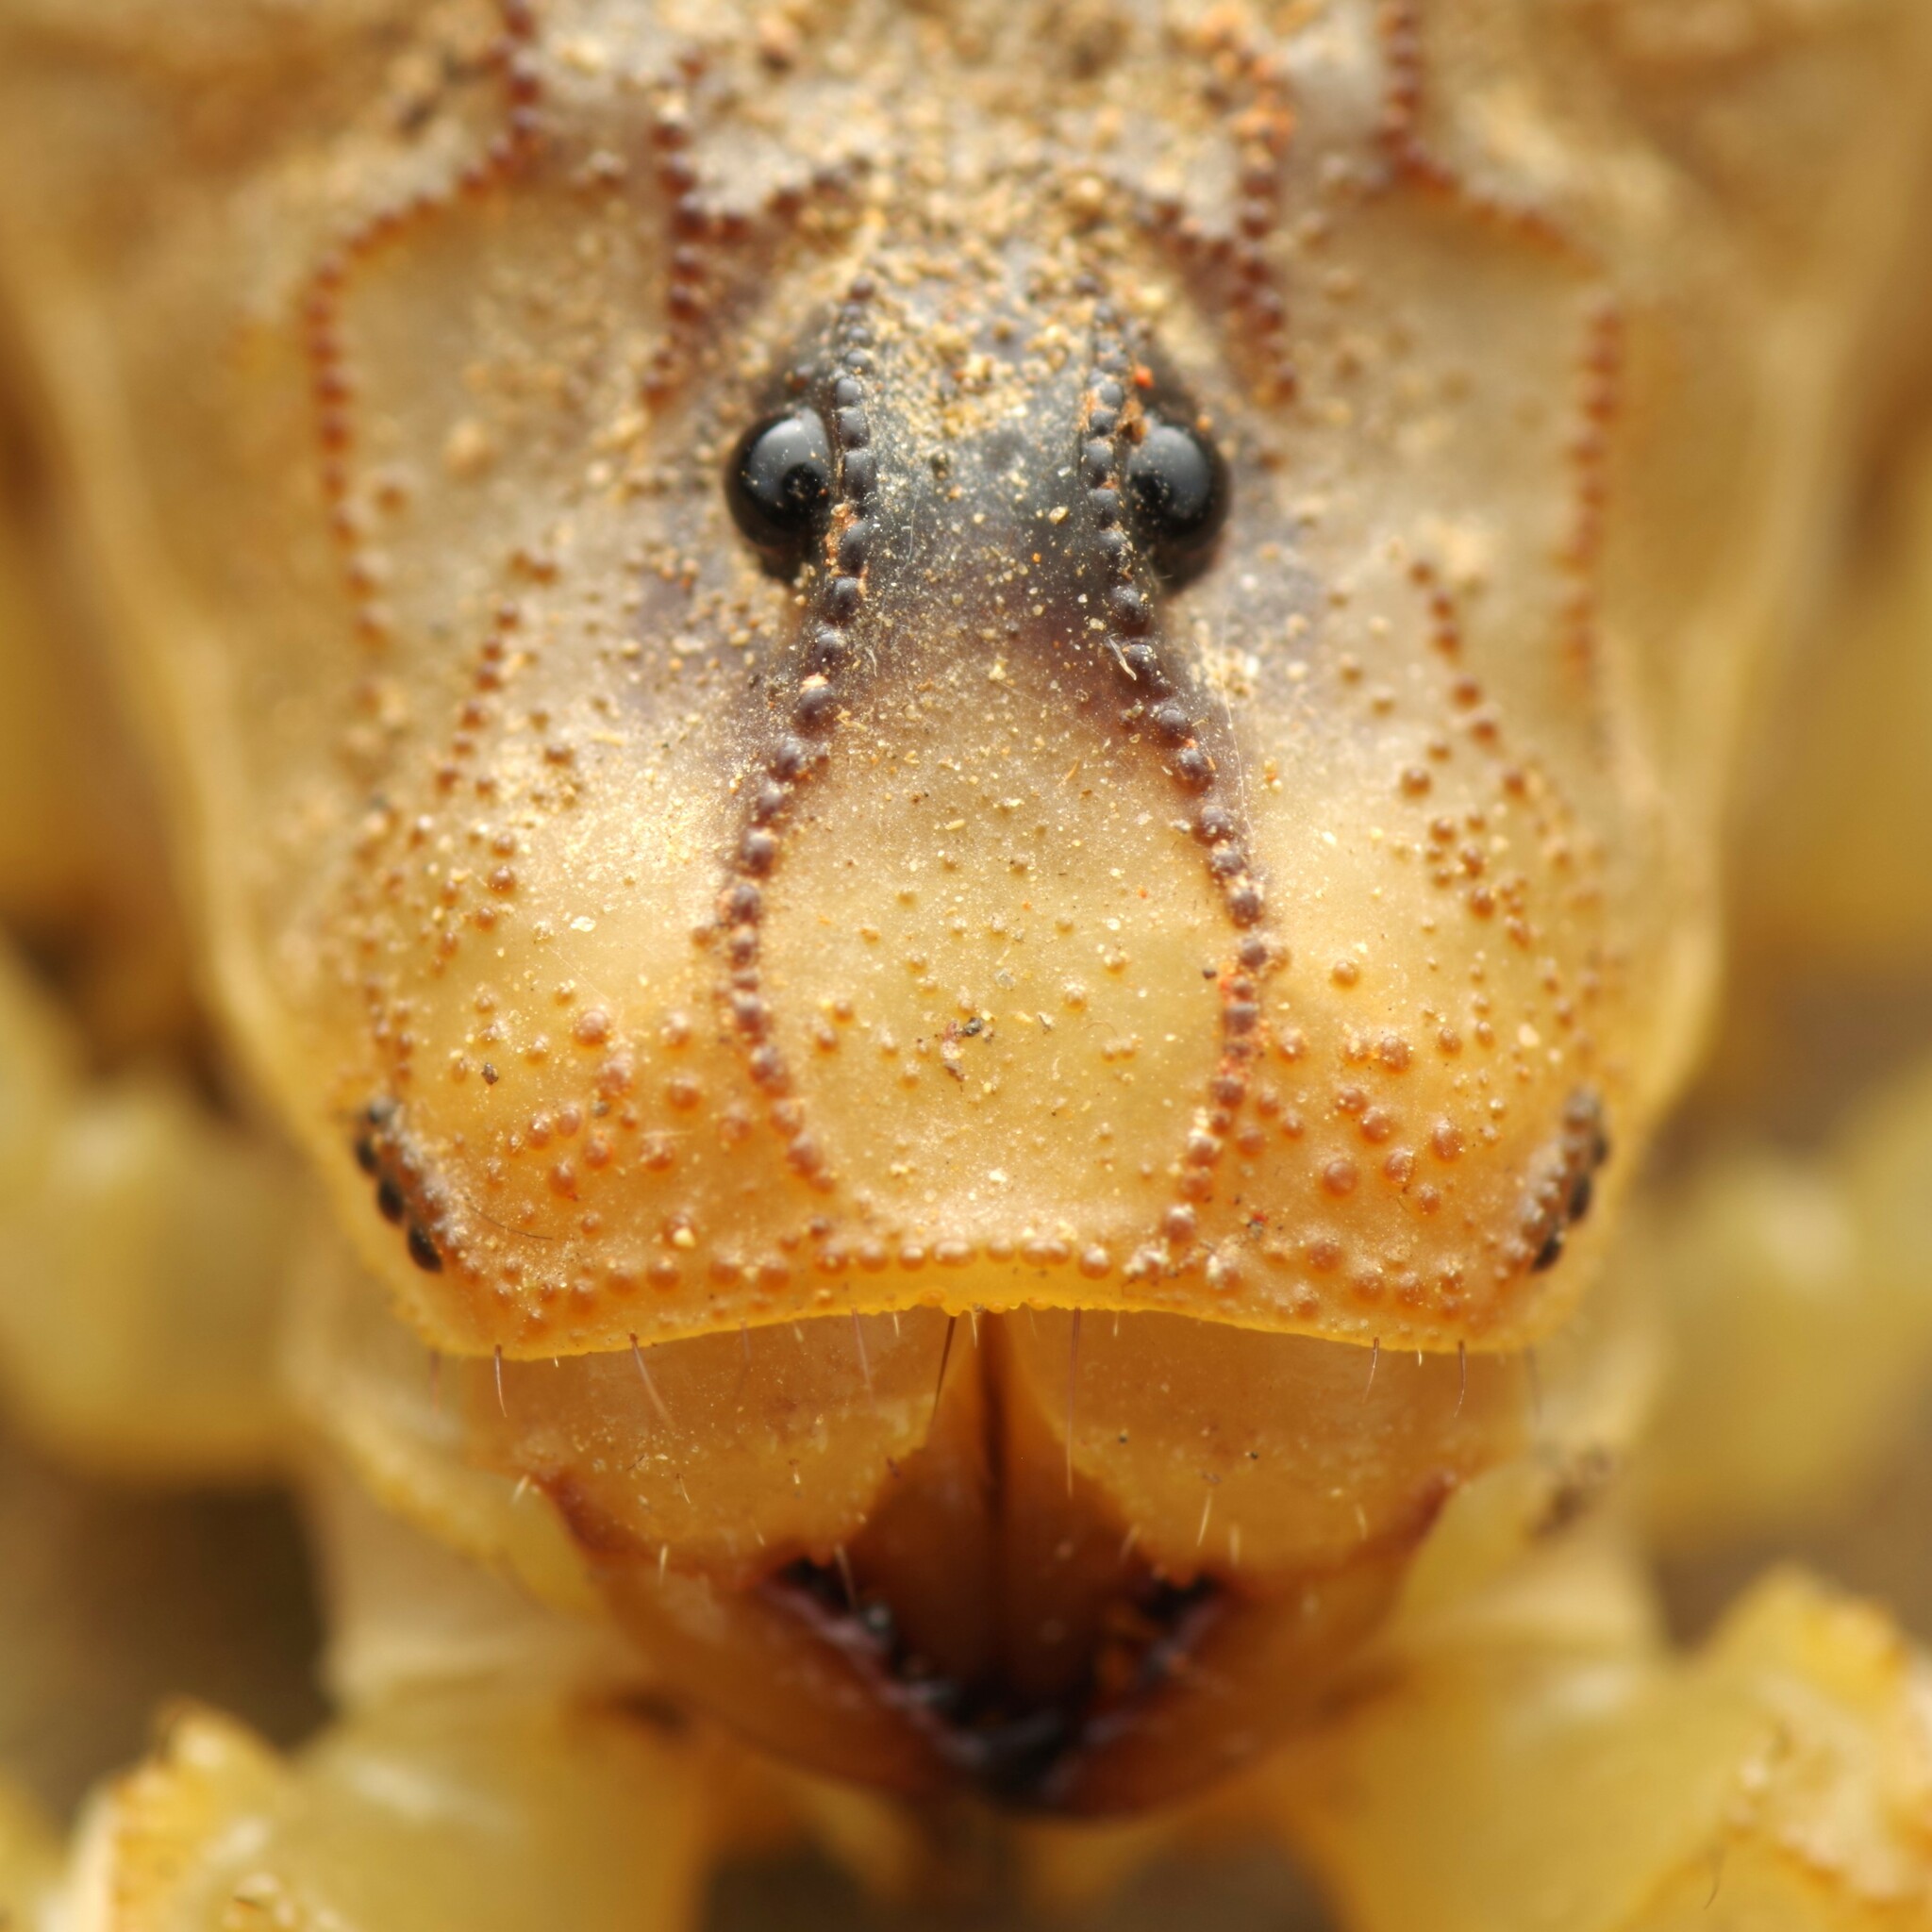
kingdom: Animalia
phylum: Arthropoda
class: Arachnida
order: Scorpiones
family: Buthidae
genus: Buthus
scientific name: Buthus pyrenaeus
